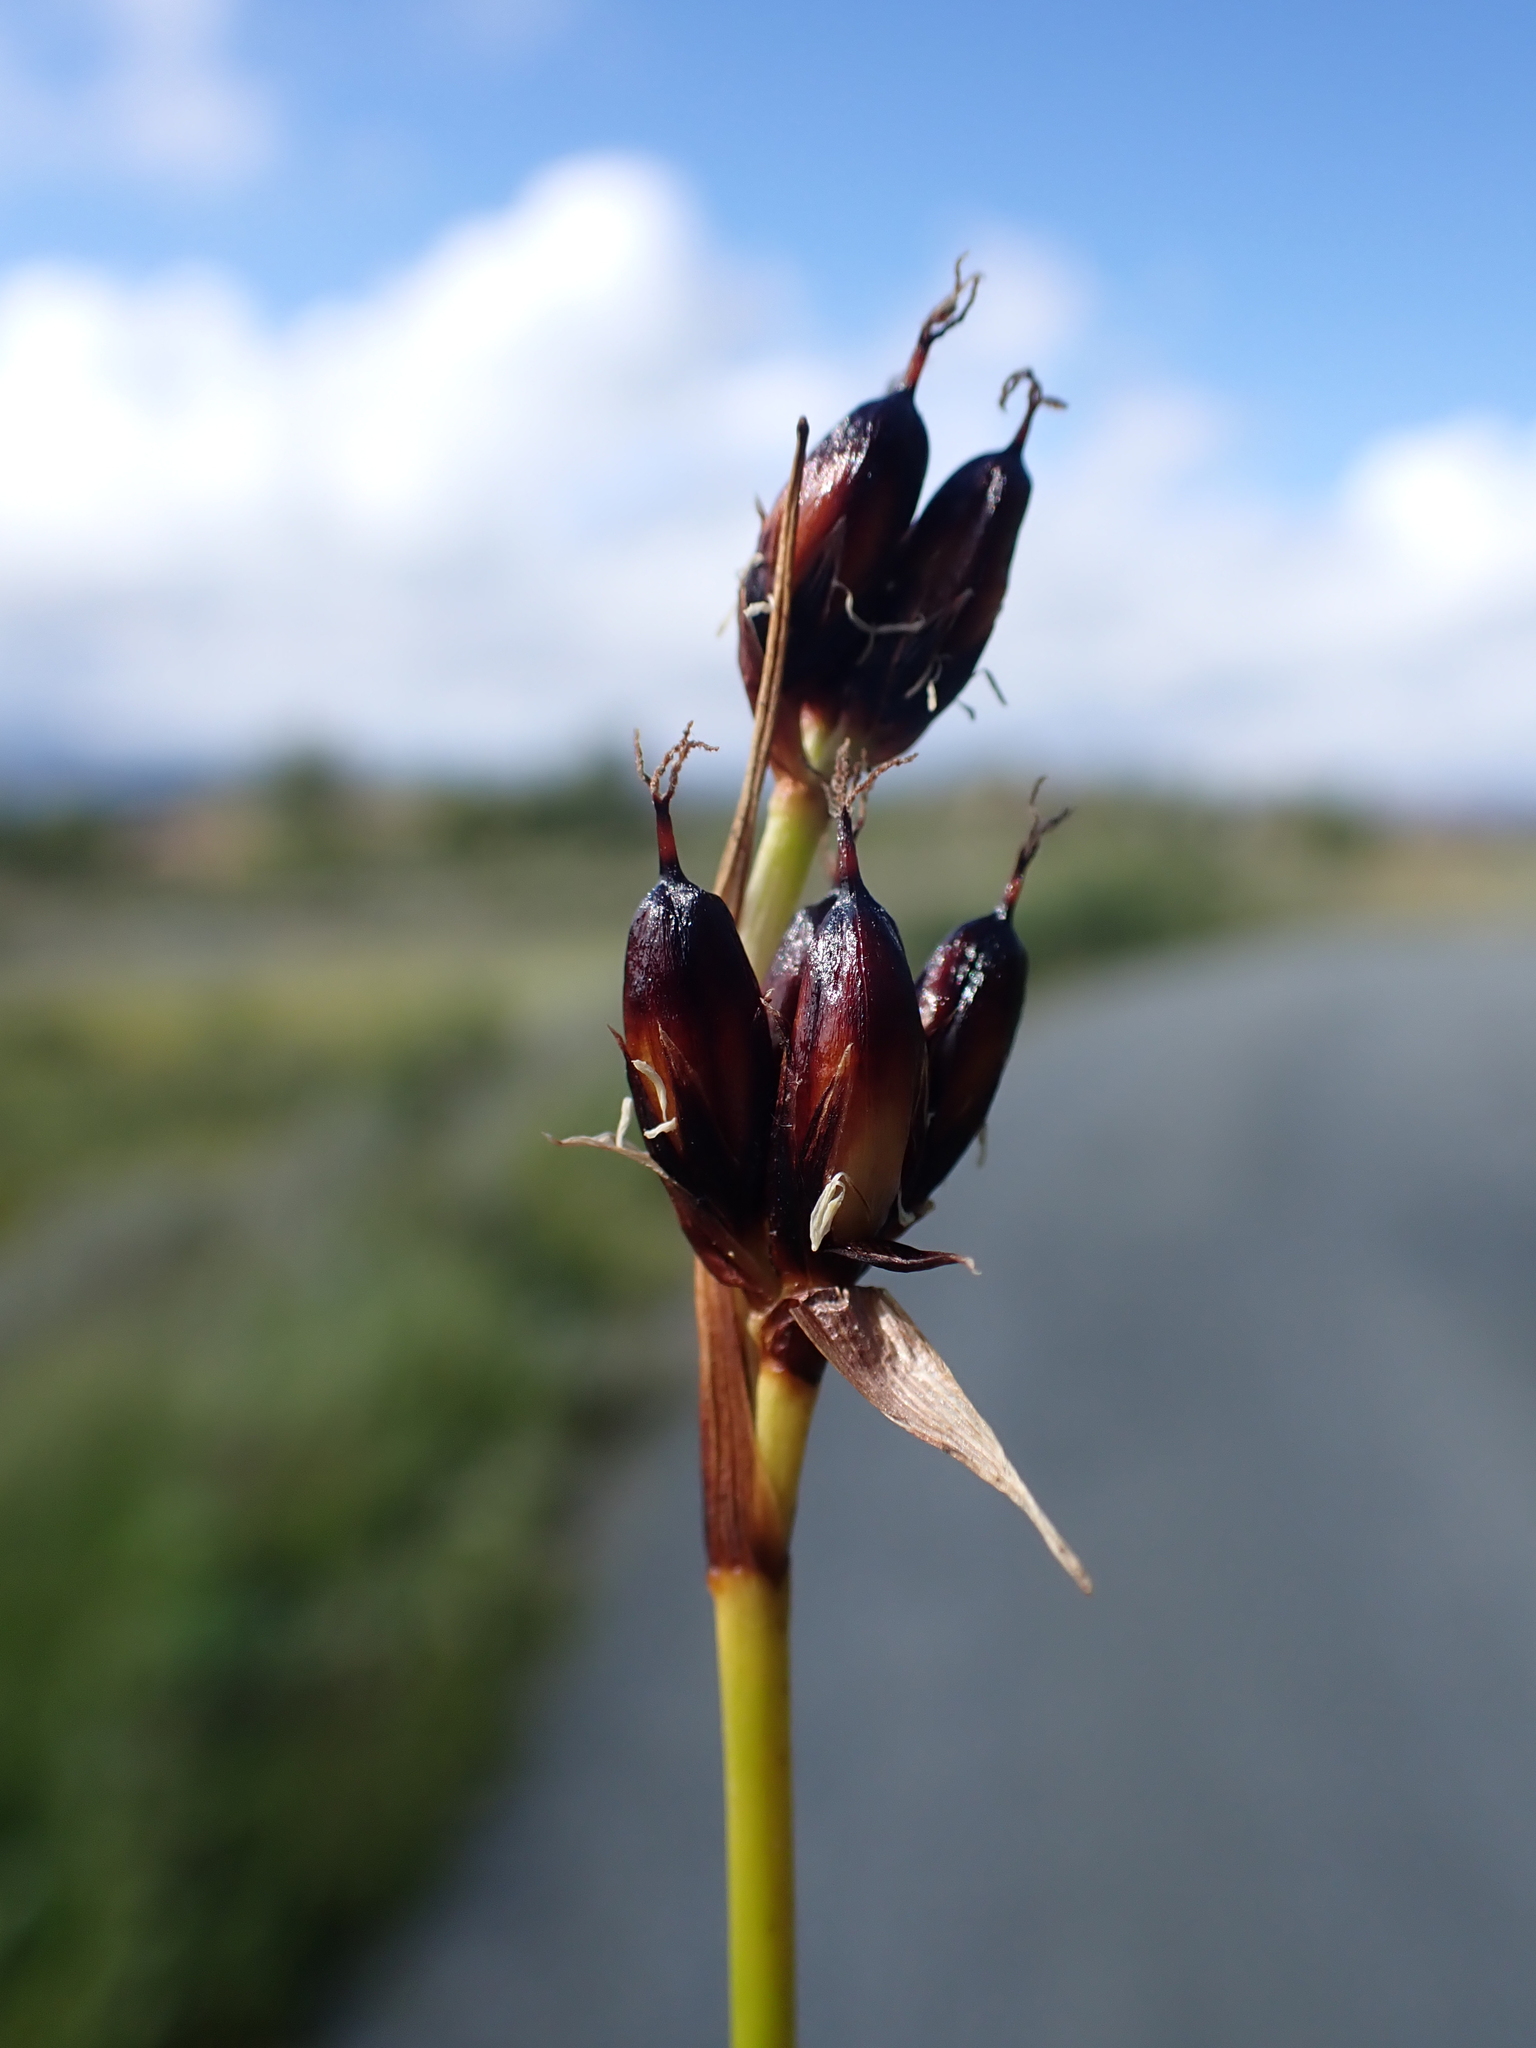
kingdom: Plantae
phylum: Tracheophyta
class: Liliopsida
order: Poales
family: Juncaceae
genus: Juncus
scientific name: Juncus castaneus
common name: Chestnut rush
